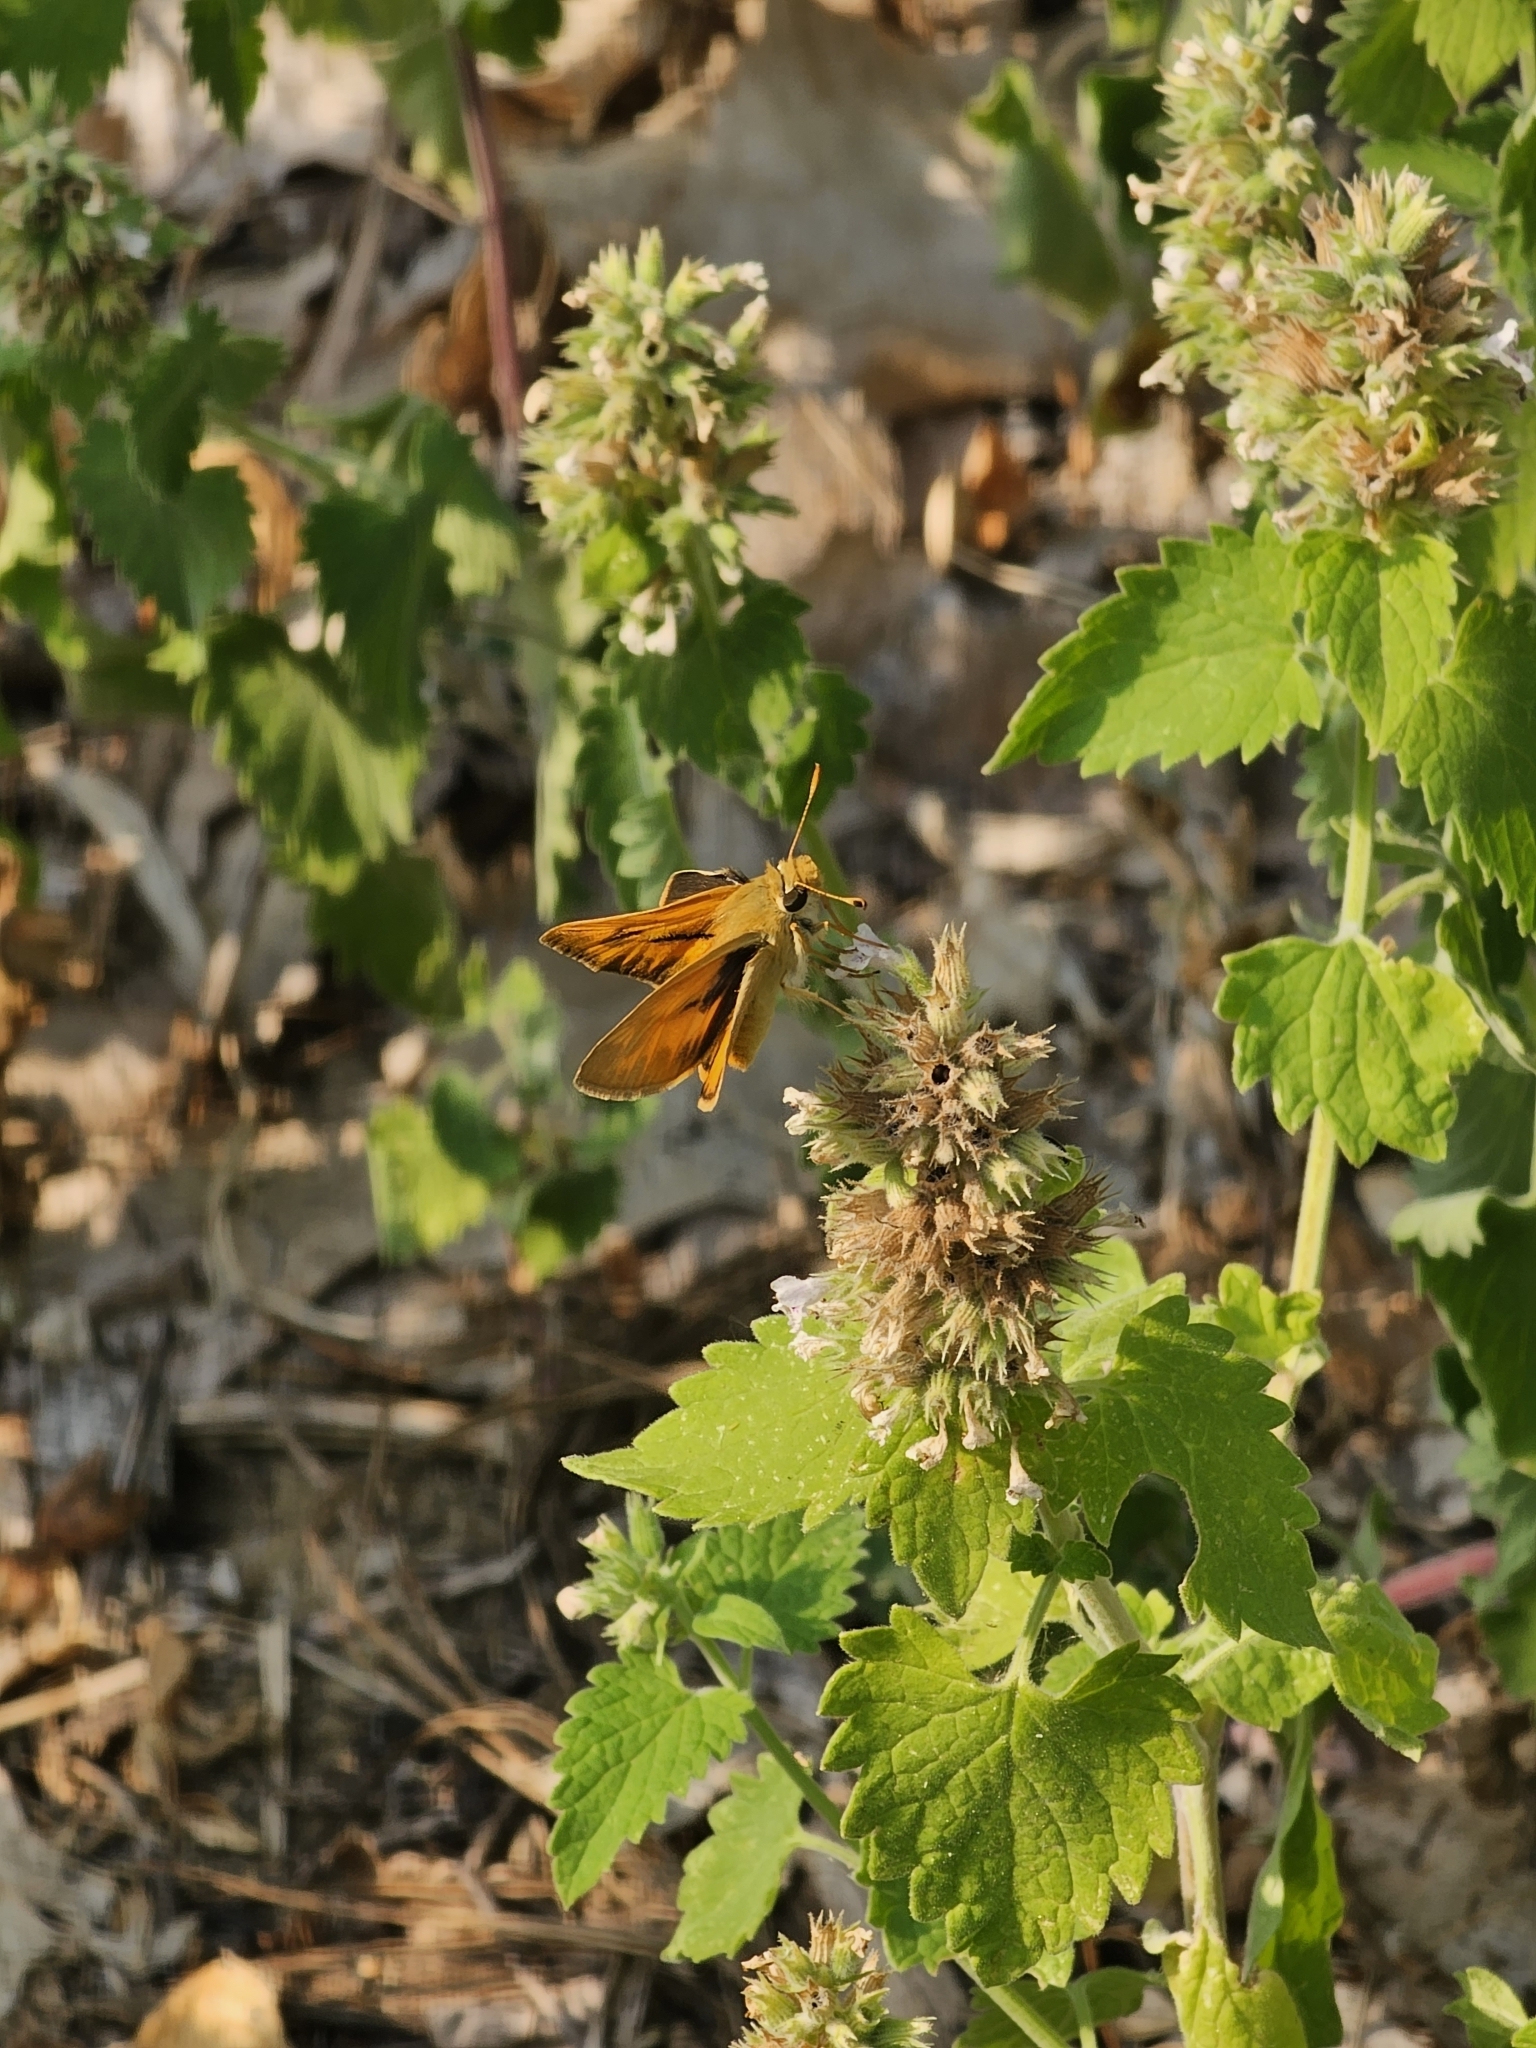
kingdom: Animalia
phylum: Arthropoda
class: Insecta
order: Lepidoptera
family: Hesperiidae
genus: Ochlodes
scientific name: Ochlodes sylvanoides
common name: Woodland skipper
